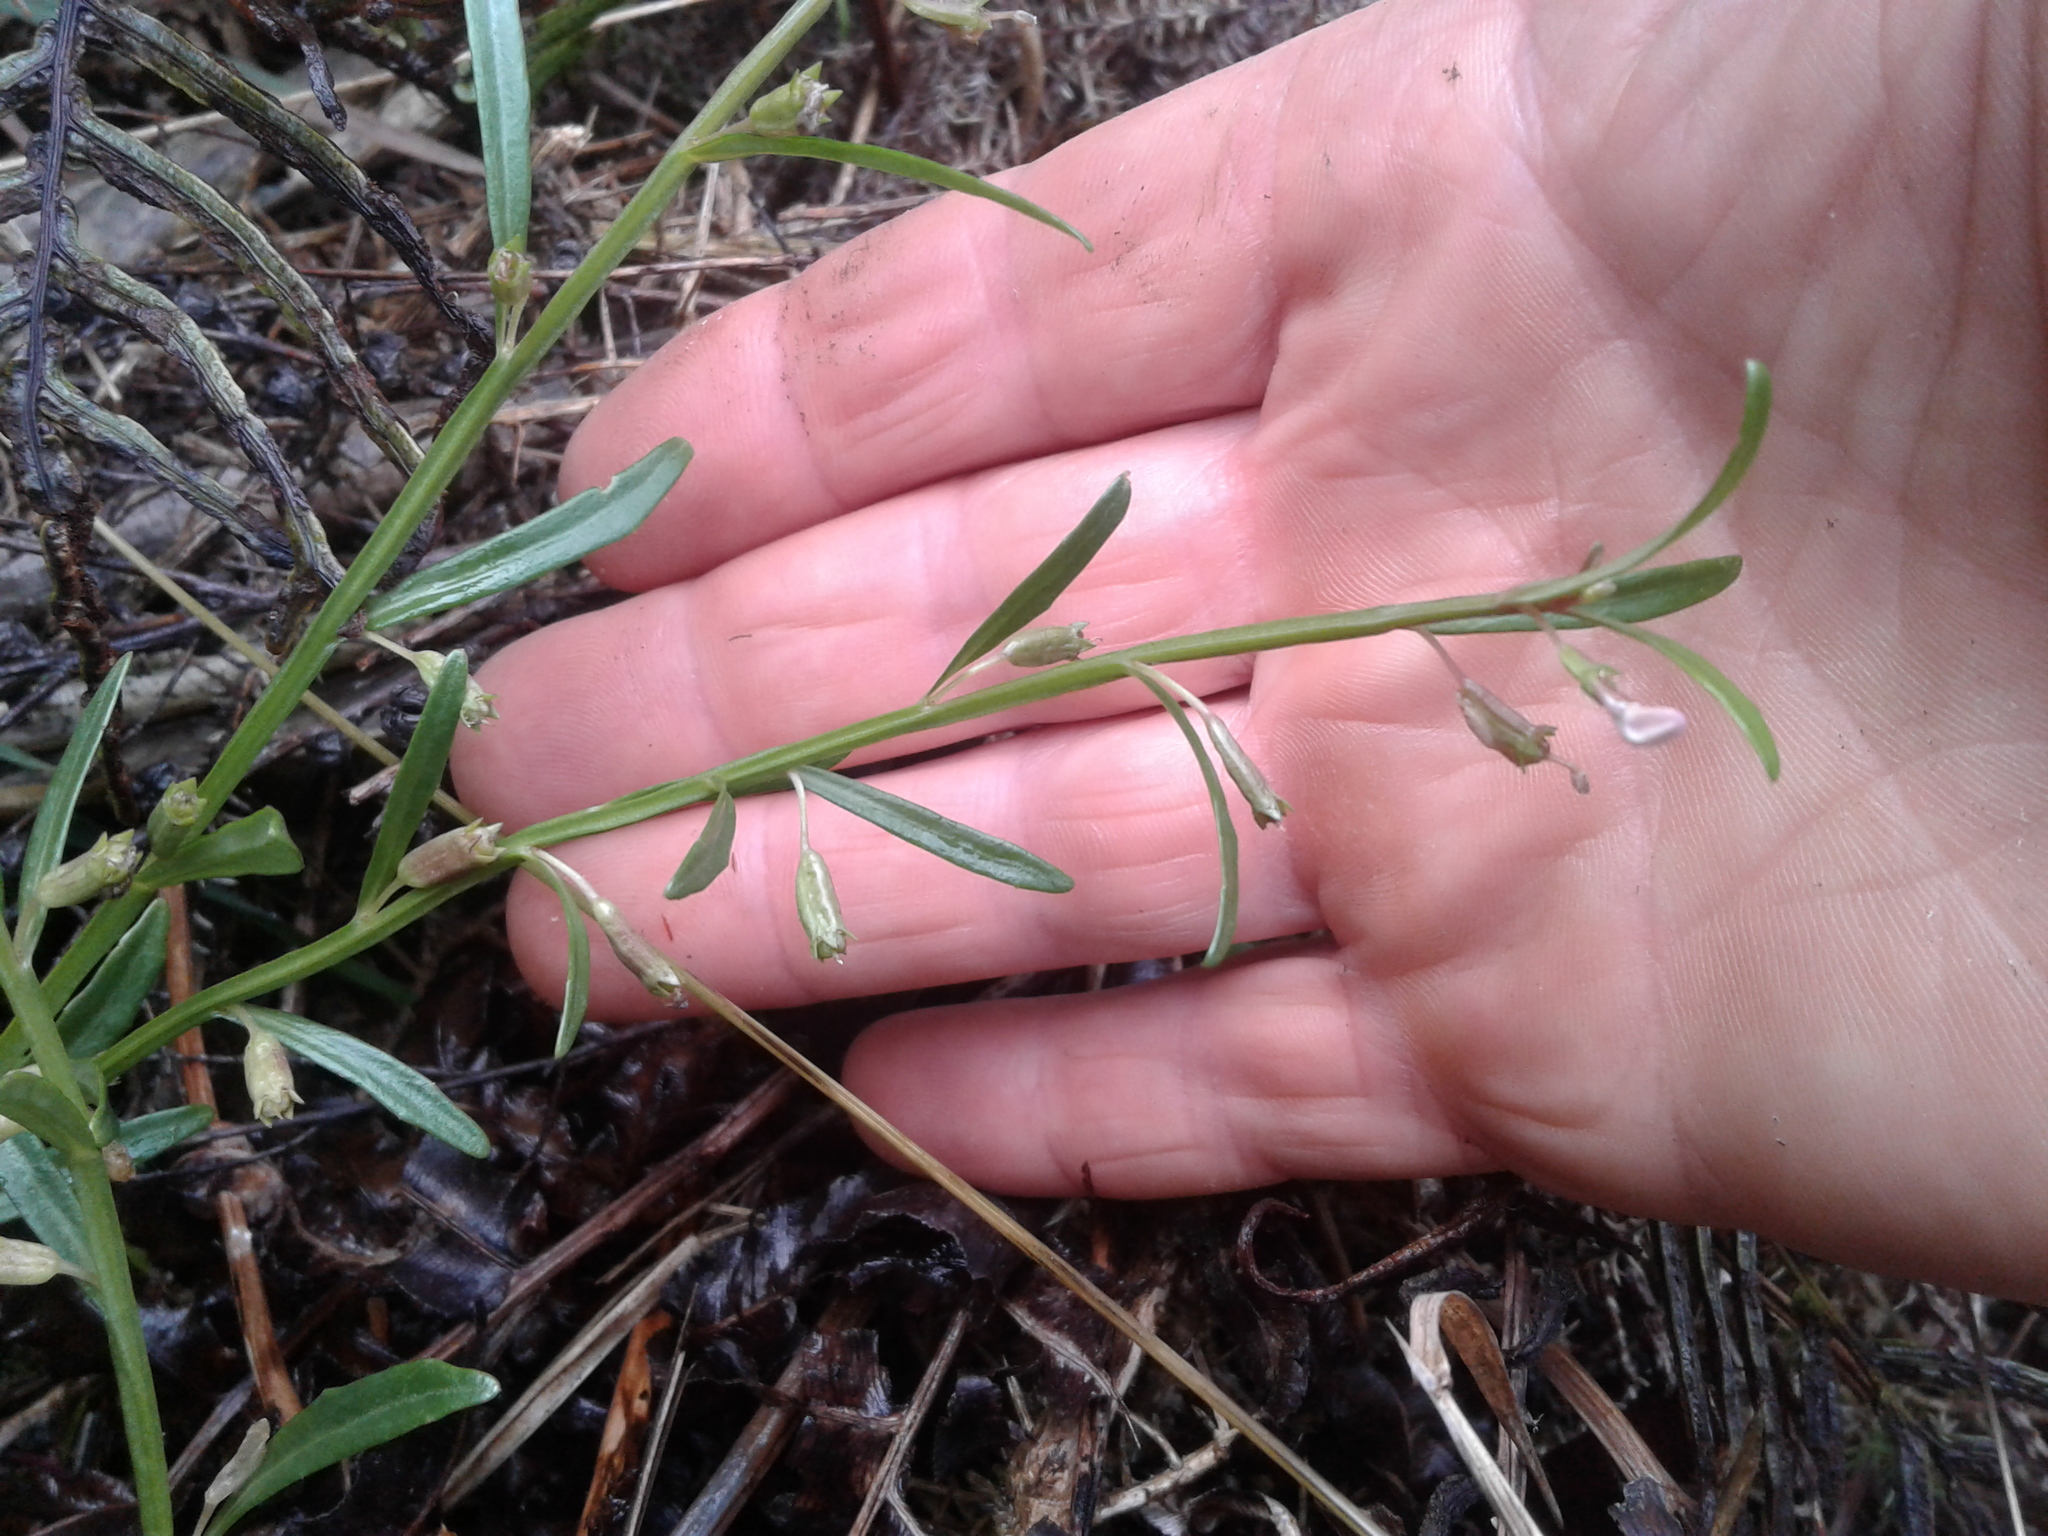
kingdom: Plantae
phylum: Tracheophyta
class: Magnoliopsida
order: Asterales
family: Campanulaceae
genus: Lobelia
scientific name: Lobelia anceps
